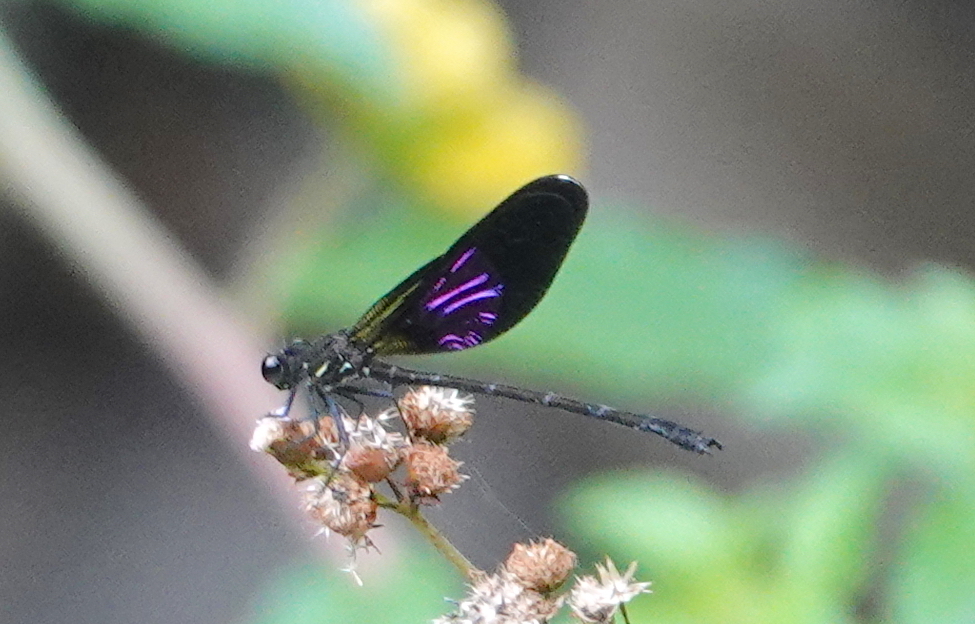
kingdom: Animalia
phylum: Arthropoda
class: Insecta
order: Odonata
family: Euphaeidae
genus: Euphaea
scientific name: Euphaea variegata
